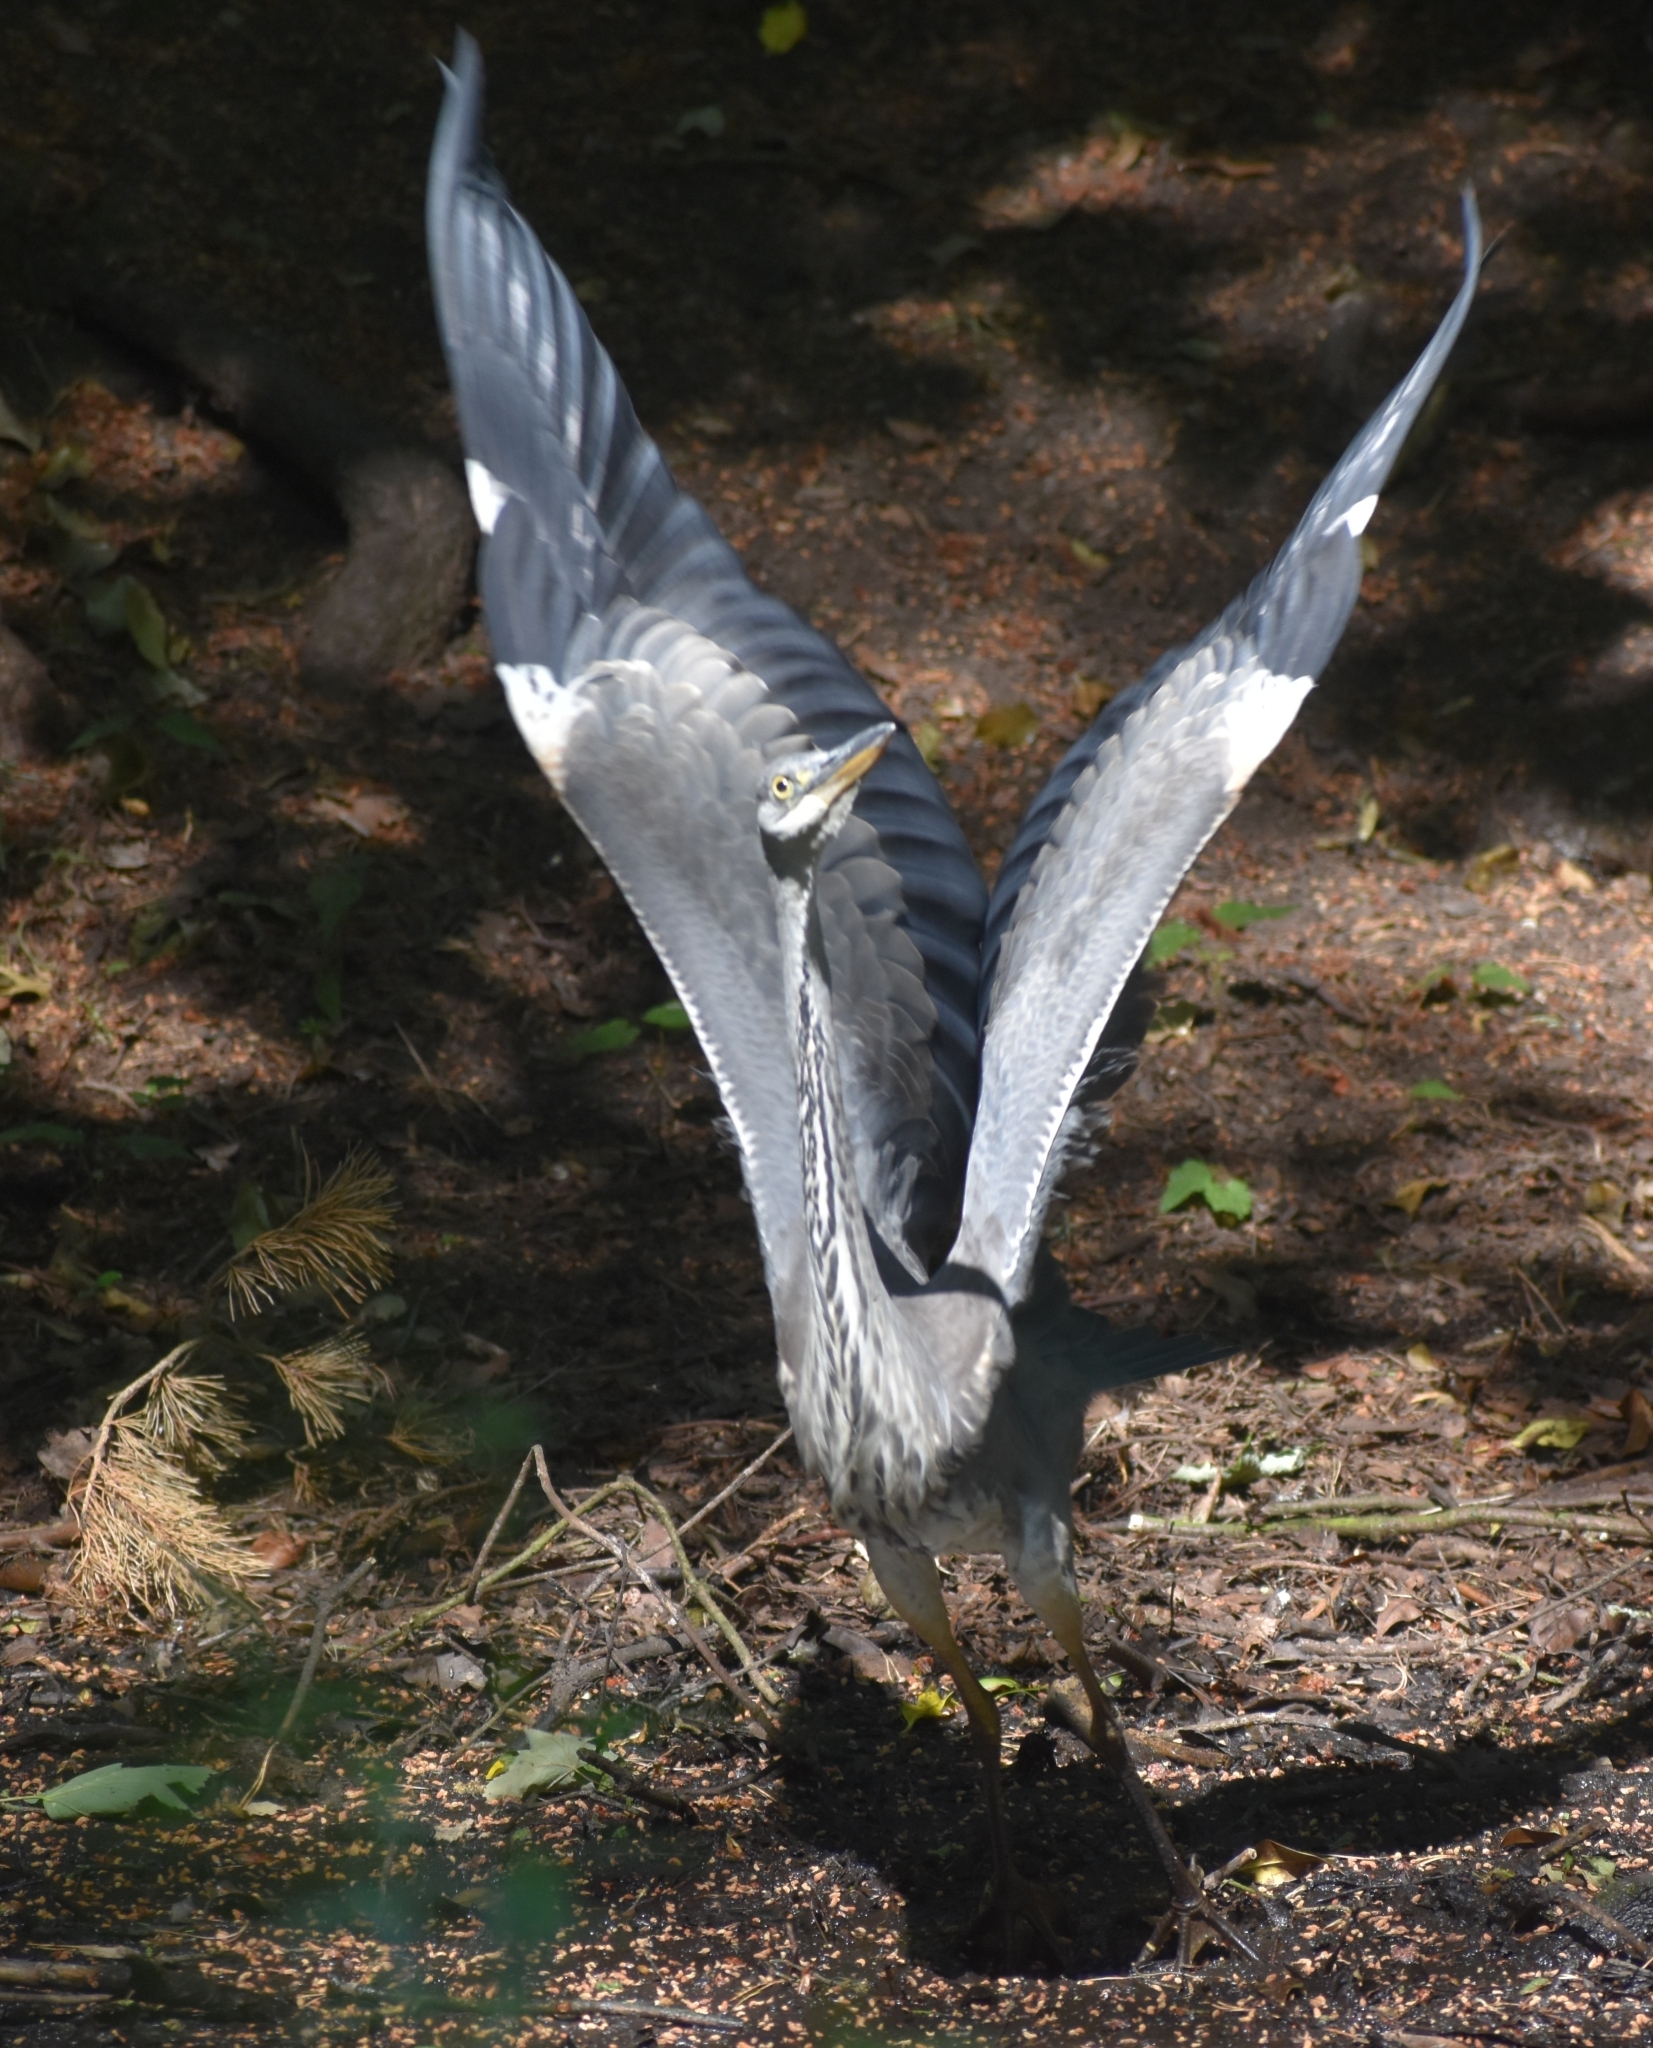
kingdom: Animalia
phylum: Chordata
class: Aves
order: Pelecaniformes
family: Ardeidae
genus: Ardea
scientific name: Ardea cinerea
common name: Grey heron
